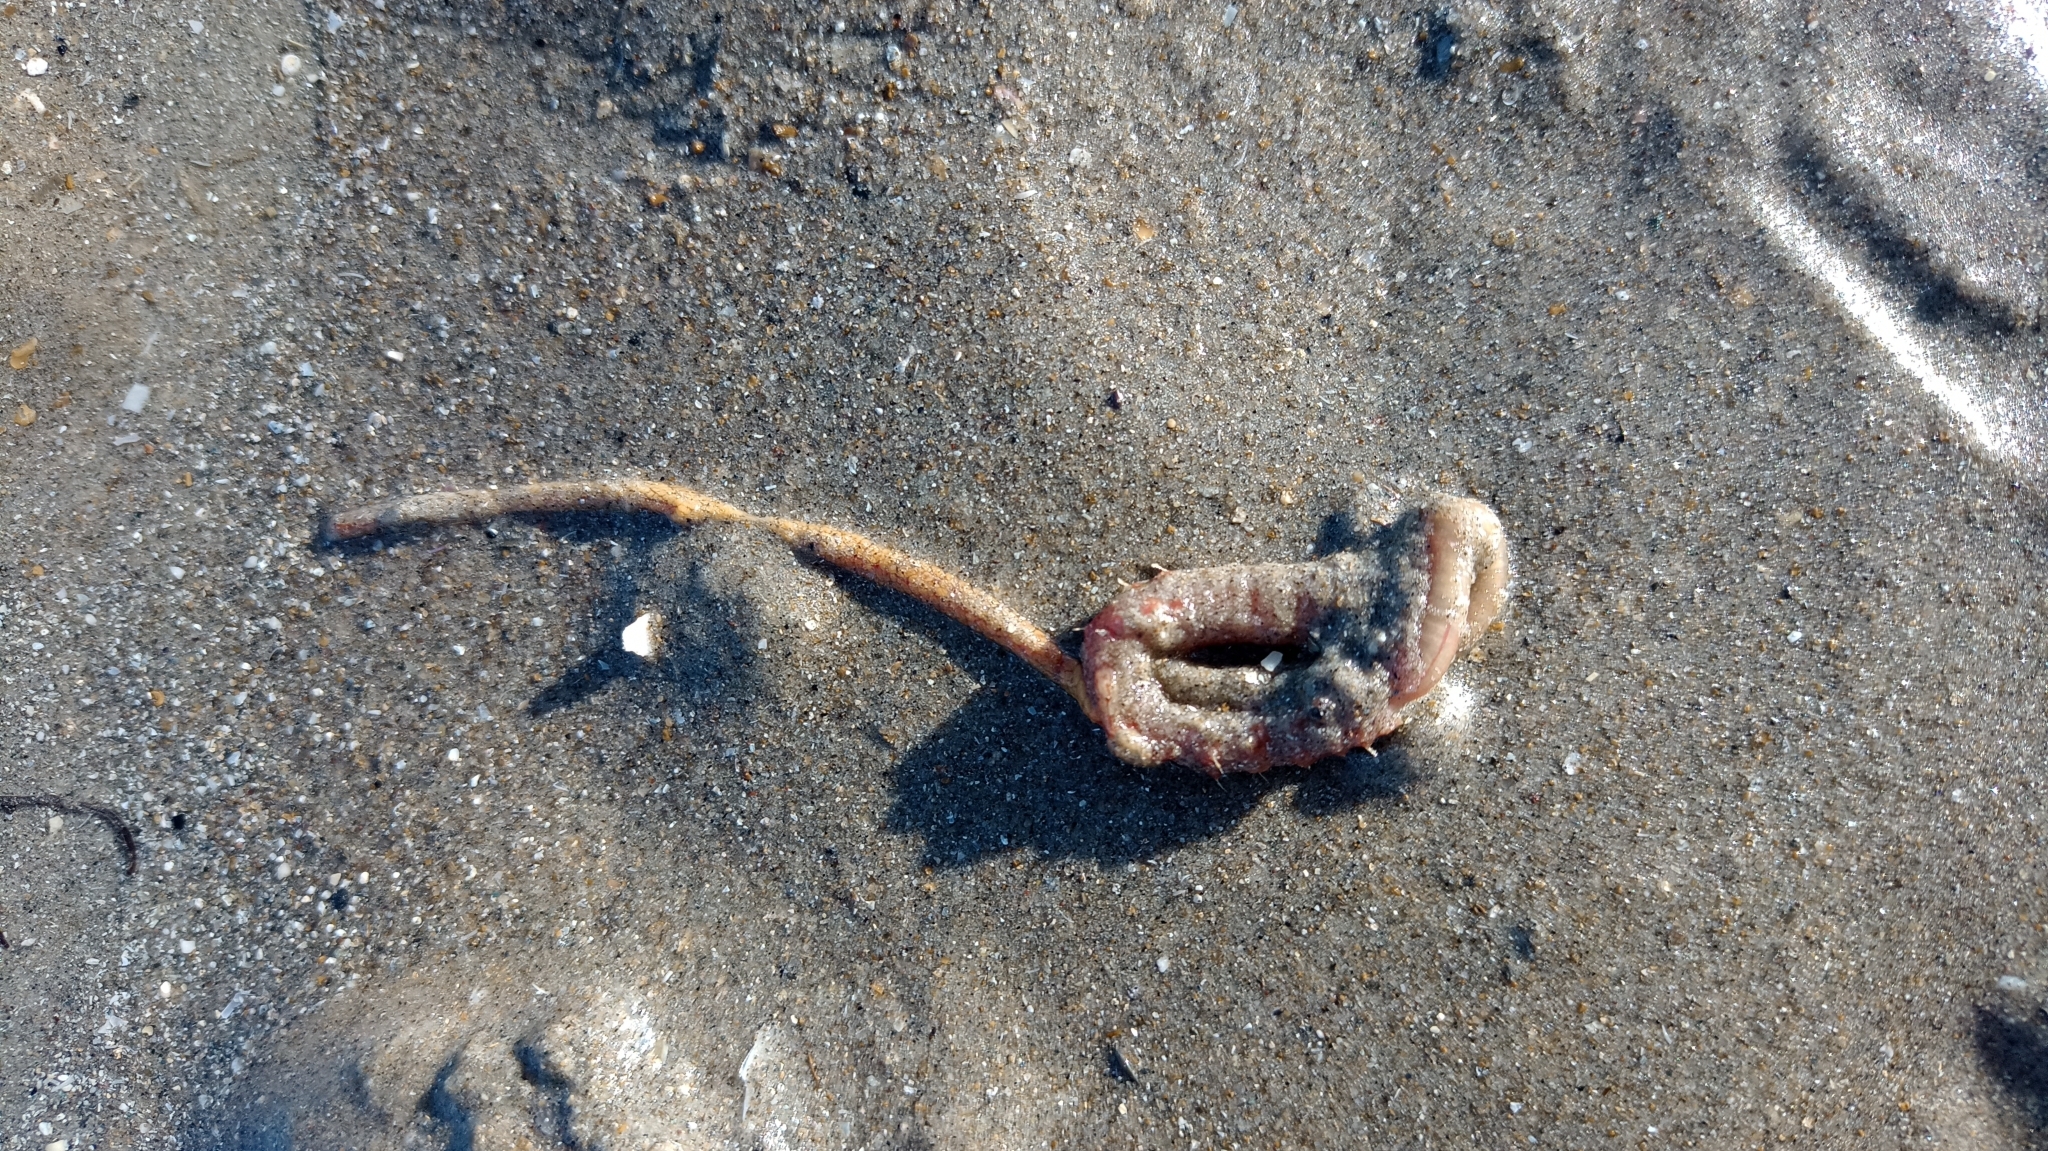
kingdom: Animalia
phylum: Annelida
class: Polychaeta
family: Arenicolidae
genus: Arenicola
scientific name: Arenicola marina
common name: Blow lugworm
